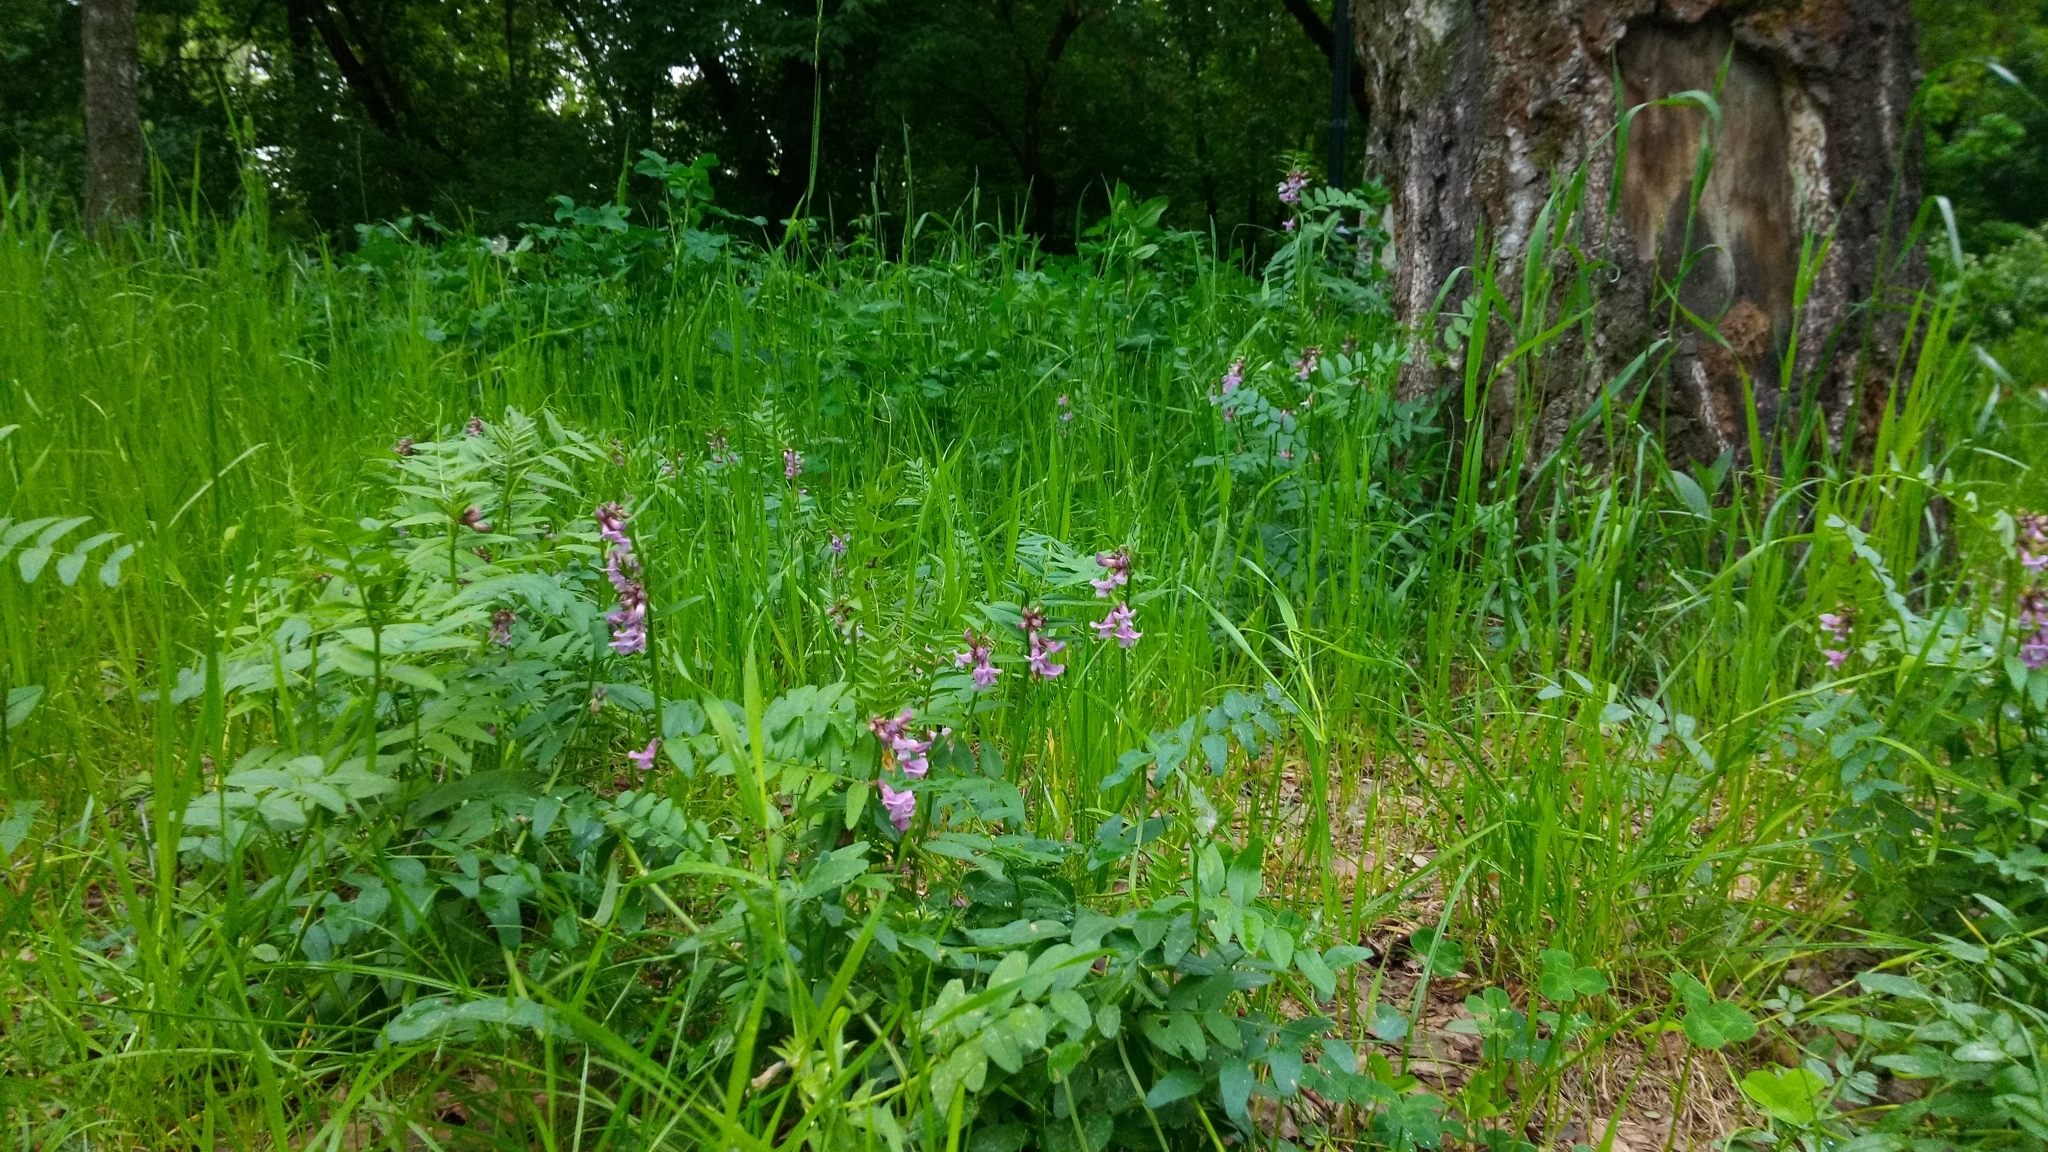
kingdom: Plantae
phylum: Tracheophyta
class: Magnoliopsida
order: Fabales
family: Fabaceae
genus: Vicia
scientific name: Vicia sepium
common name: Bush vetch
